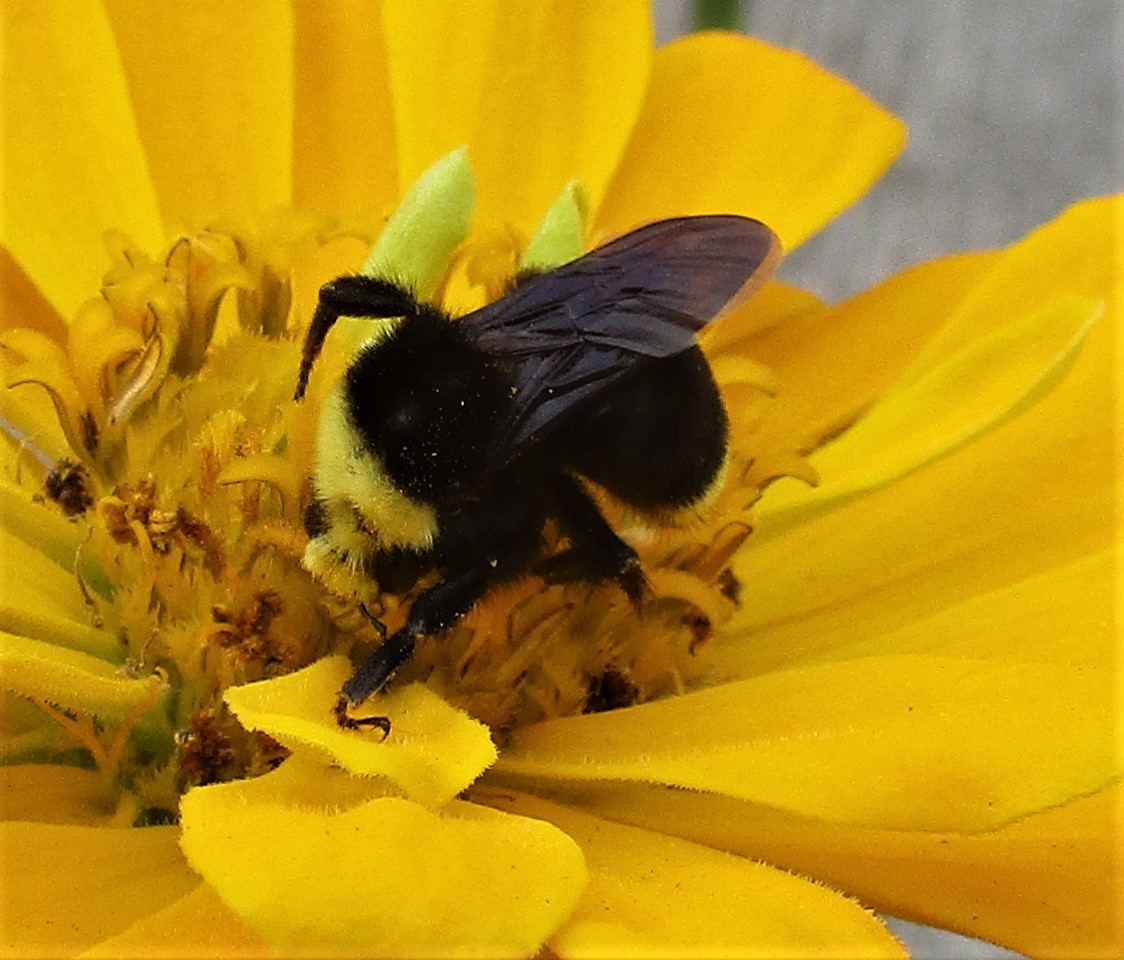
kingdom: Animalia
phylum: Arthropoda
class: Insecta
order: Hymenoptera
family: Apidae
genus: Bombus
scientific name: Bombus vosnesenskii
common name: Vosnesensky bumble bee
